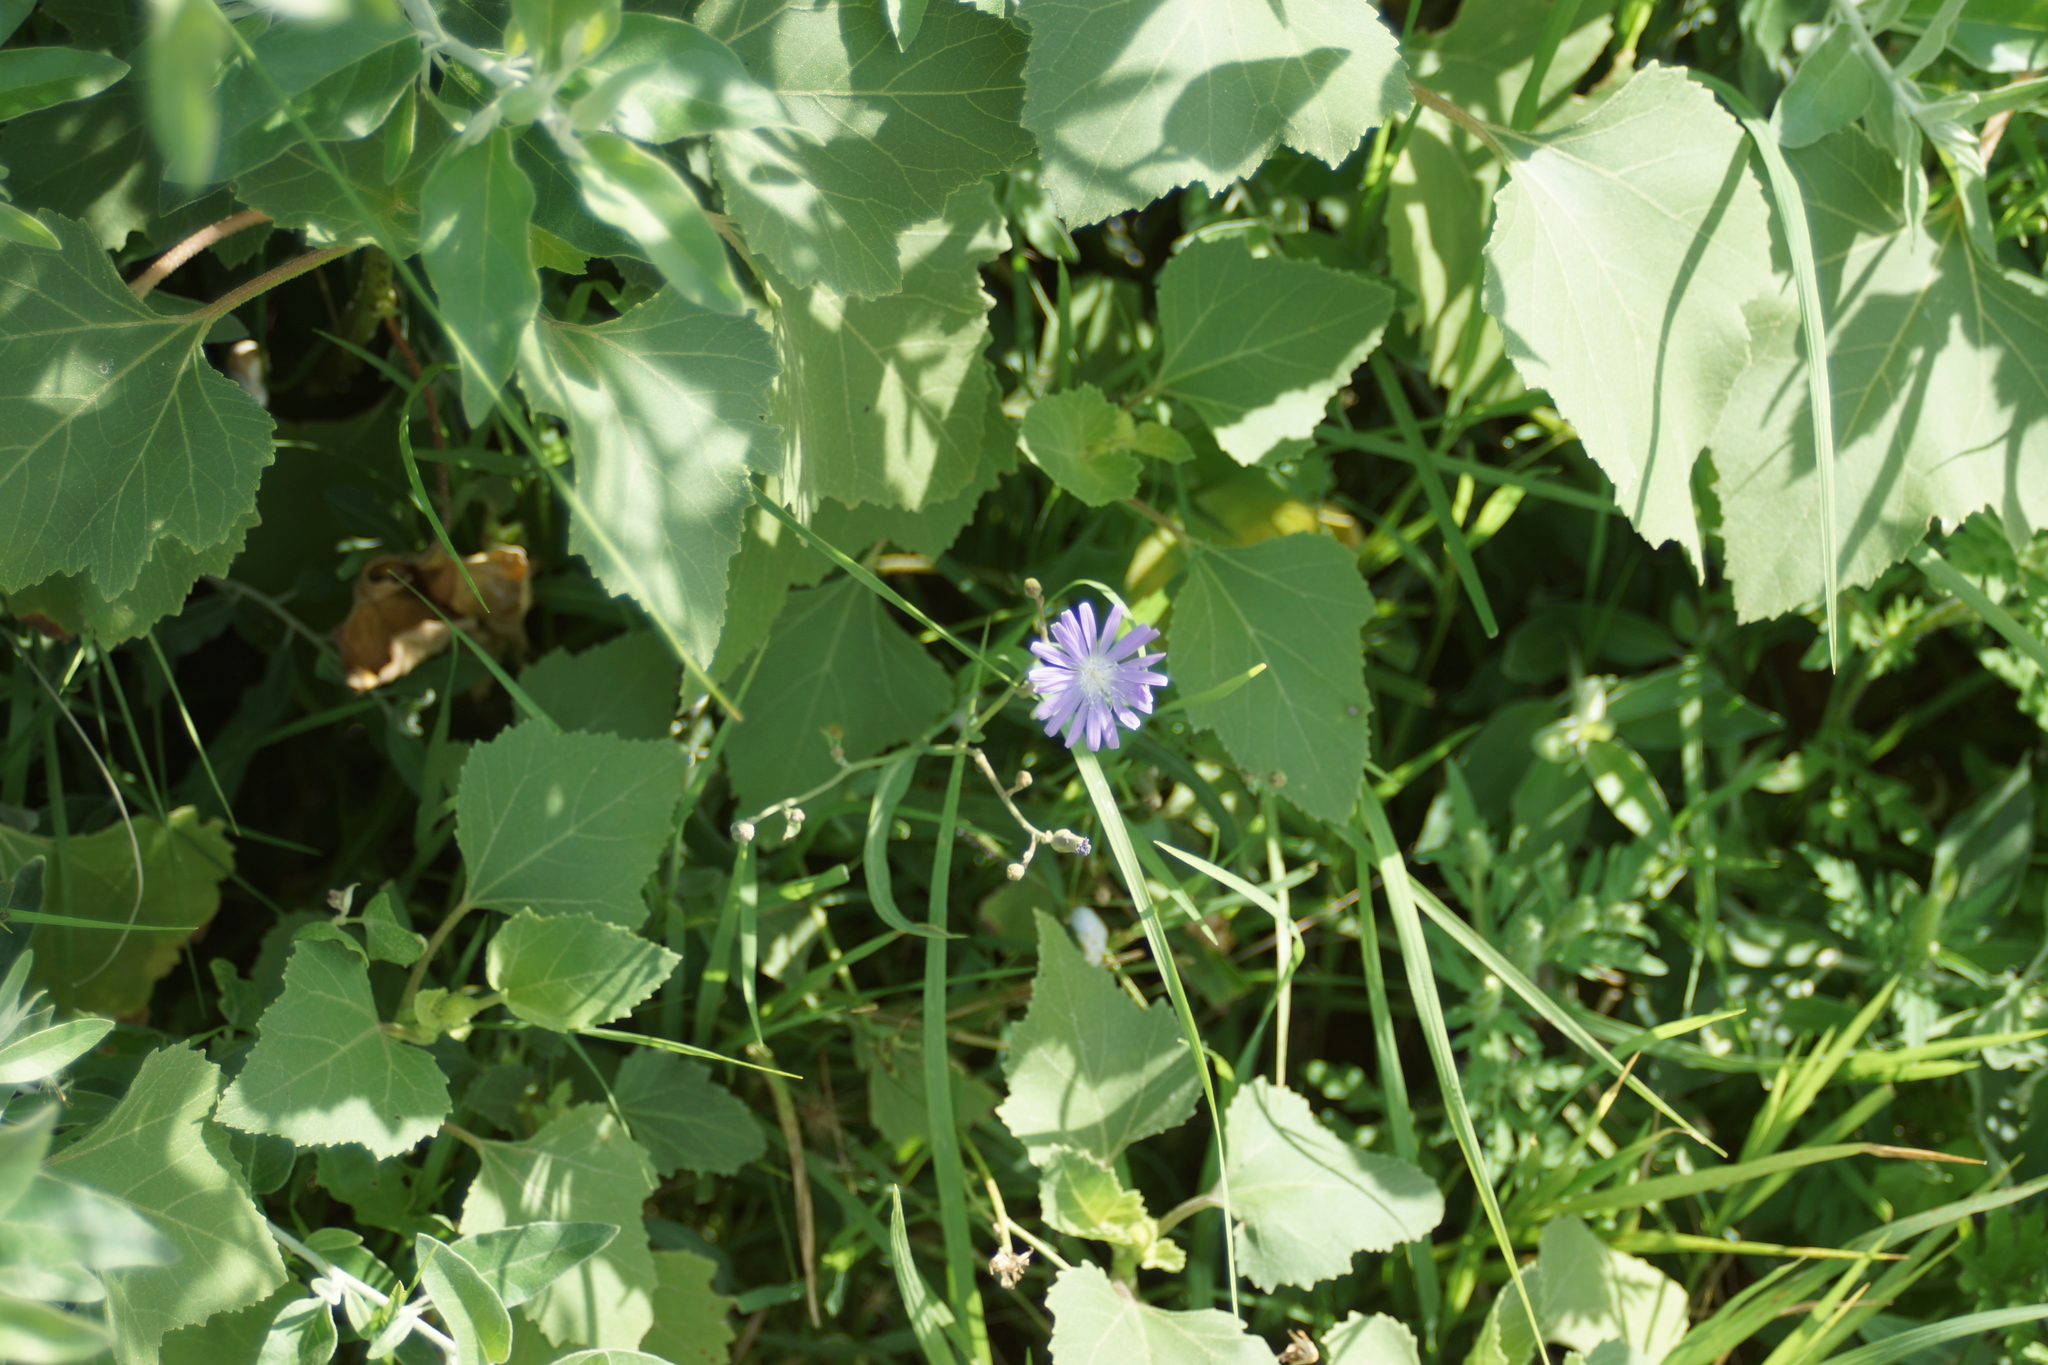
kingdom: Plantae
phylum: Tracheophyta
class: Magnoliopsida
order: Asterales
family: Asteraceae
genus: Lactuca
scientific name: Lactuca tatarica
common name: Blue lettuce
